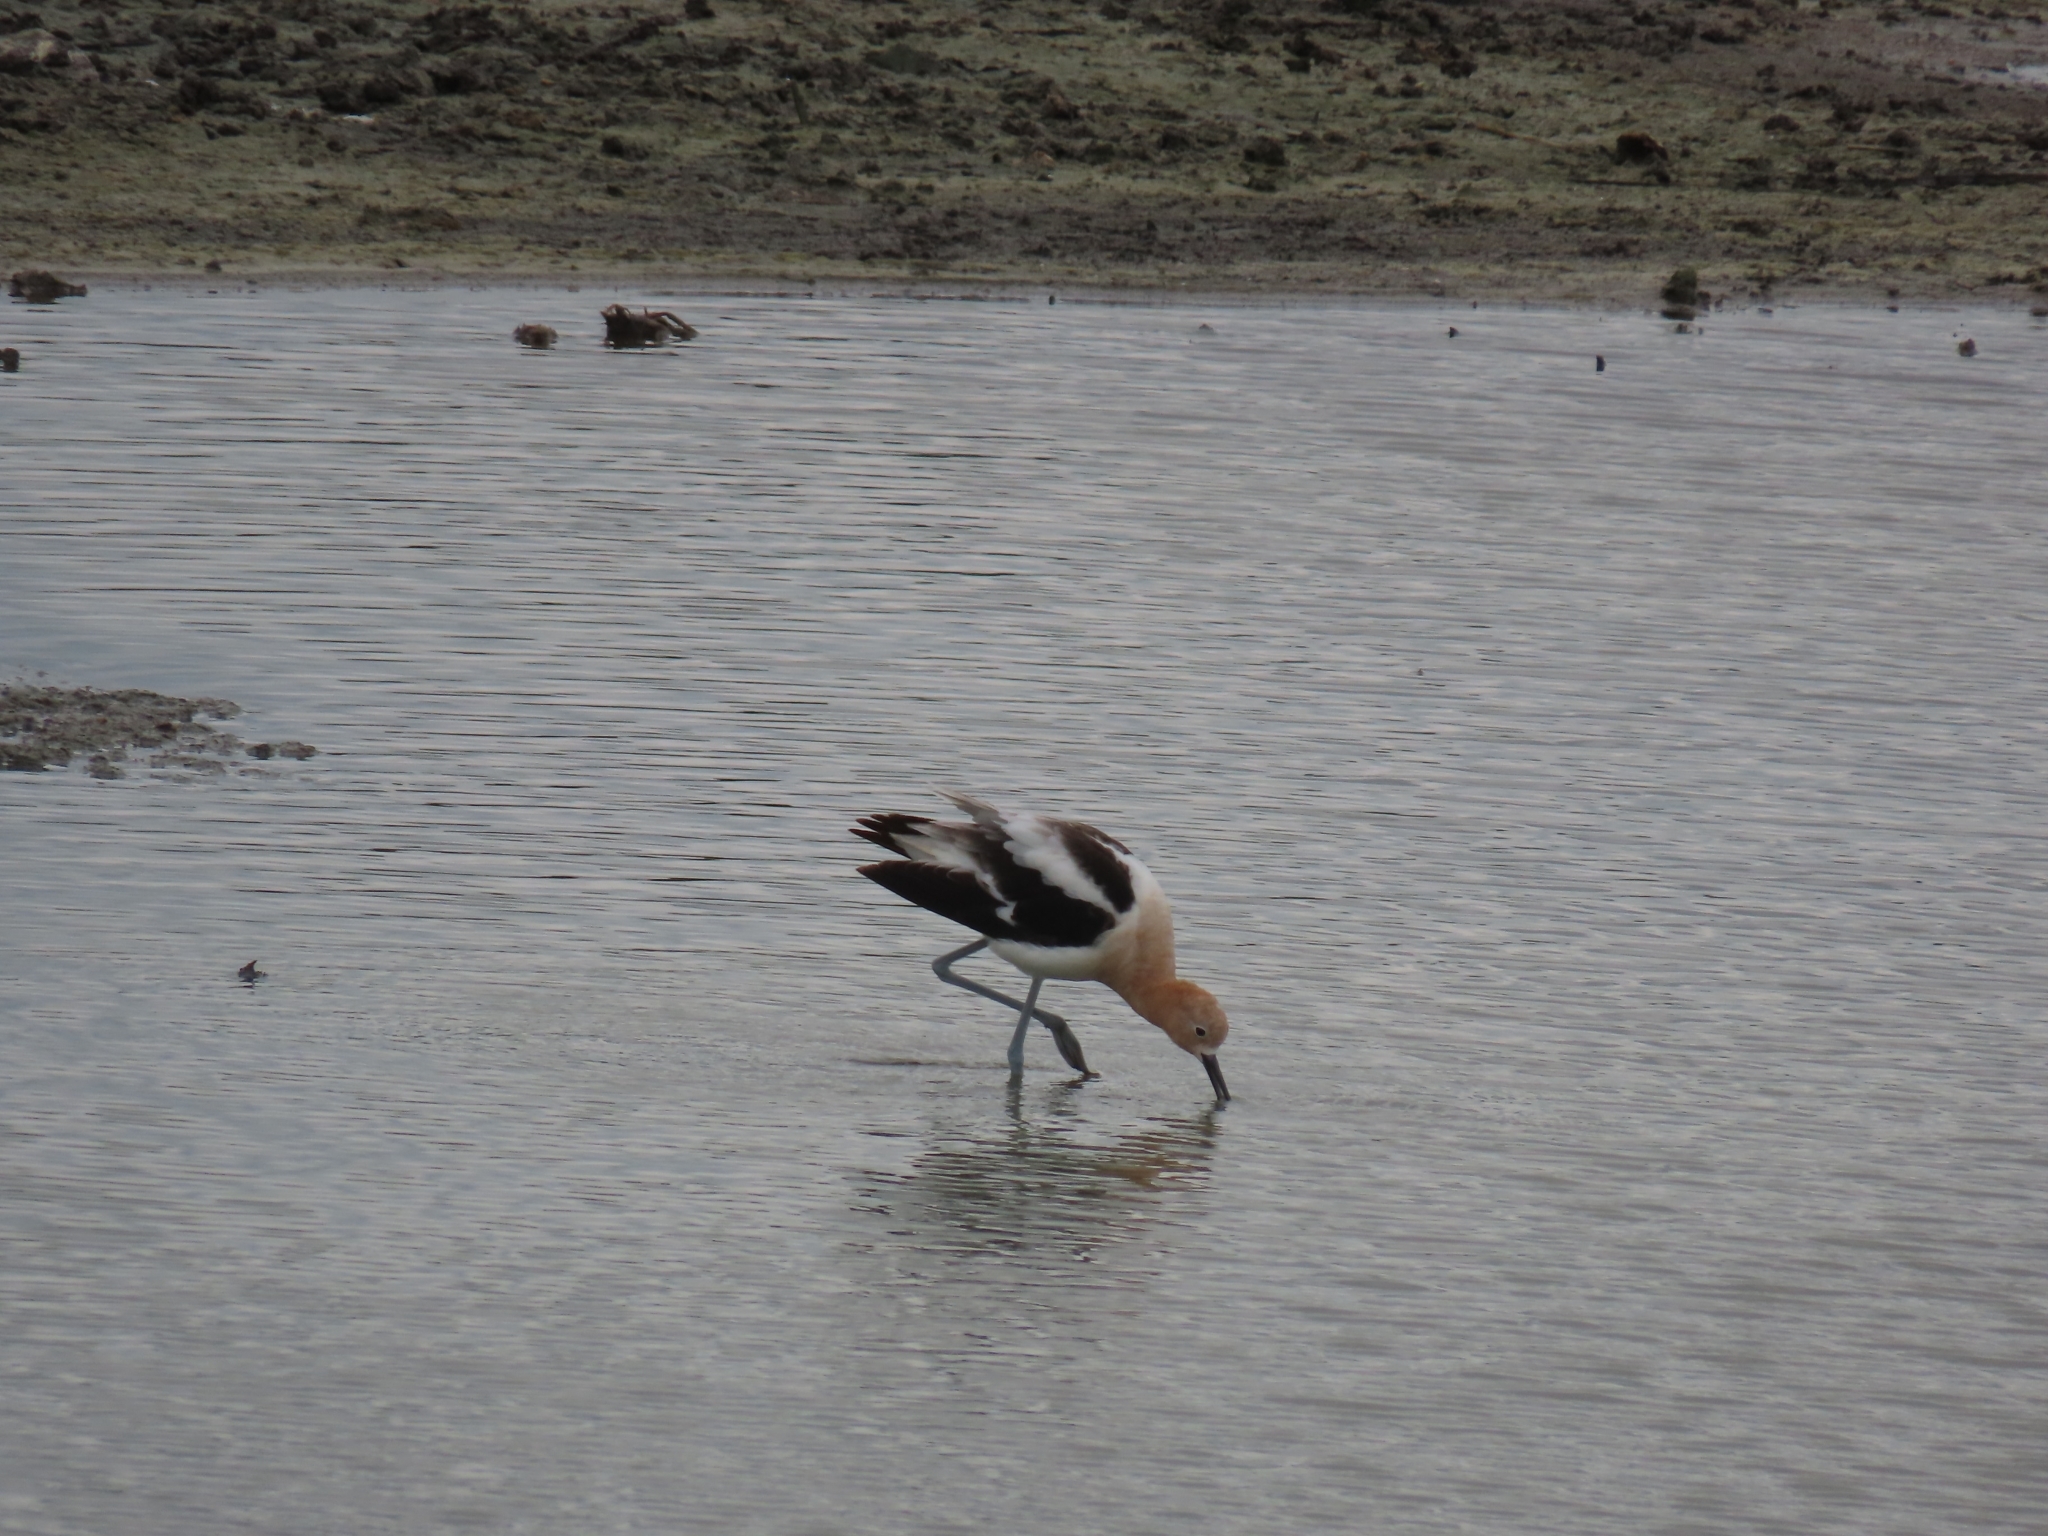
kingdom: Animalia
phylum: Chordata
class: Aves
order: Charadriiformes
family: Recurvirostridae
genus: Recurvirostra
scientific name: Recurvirostra americana
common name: American avocet
